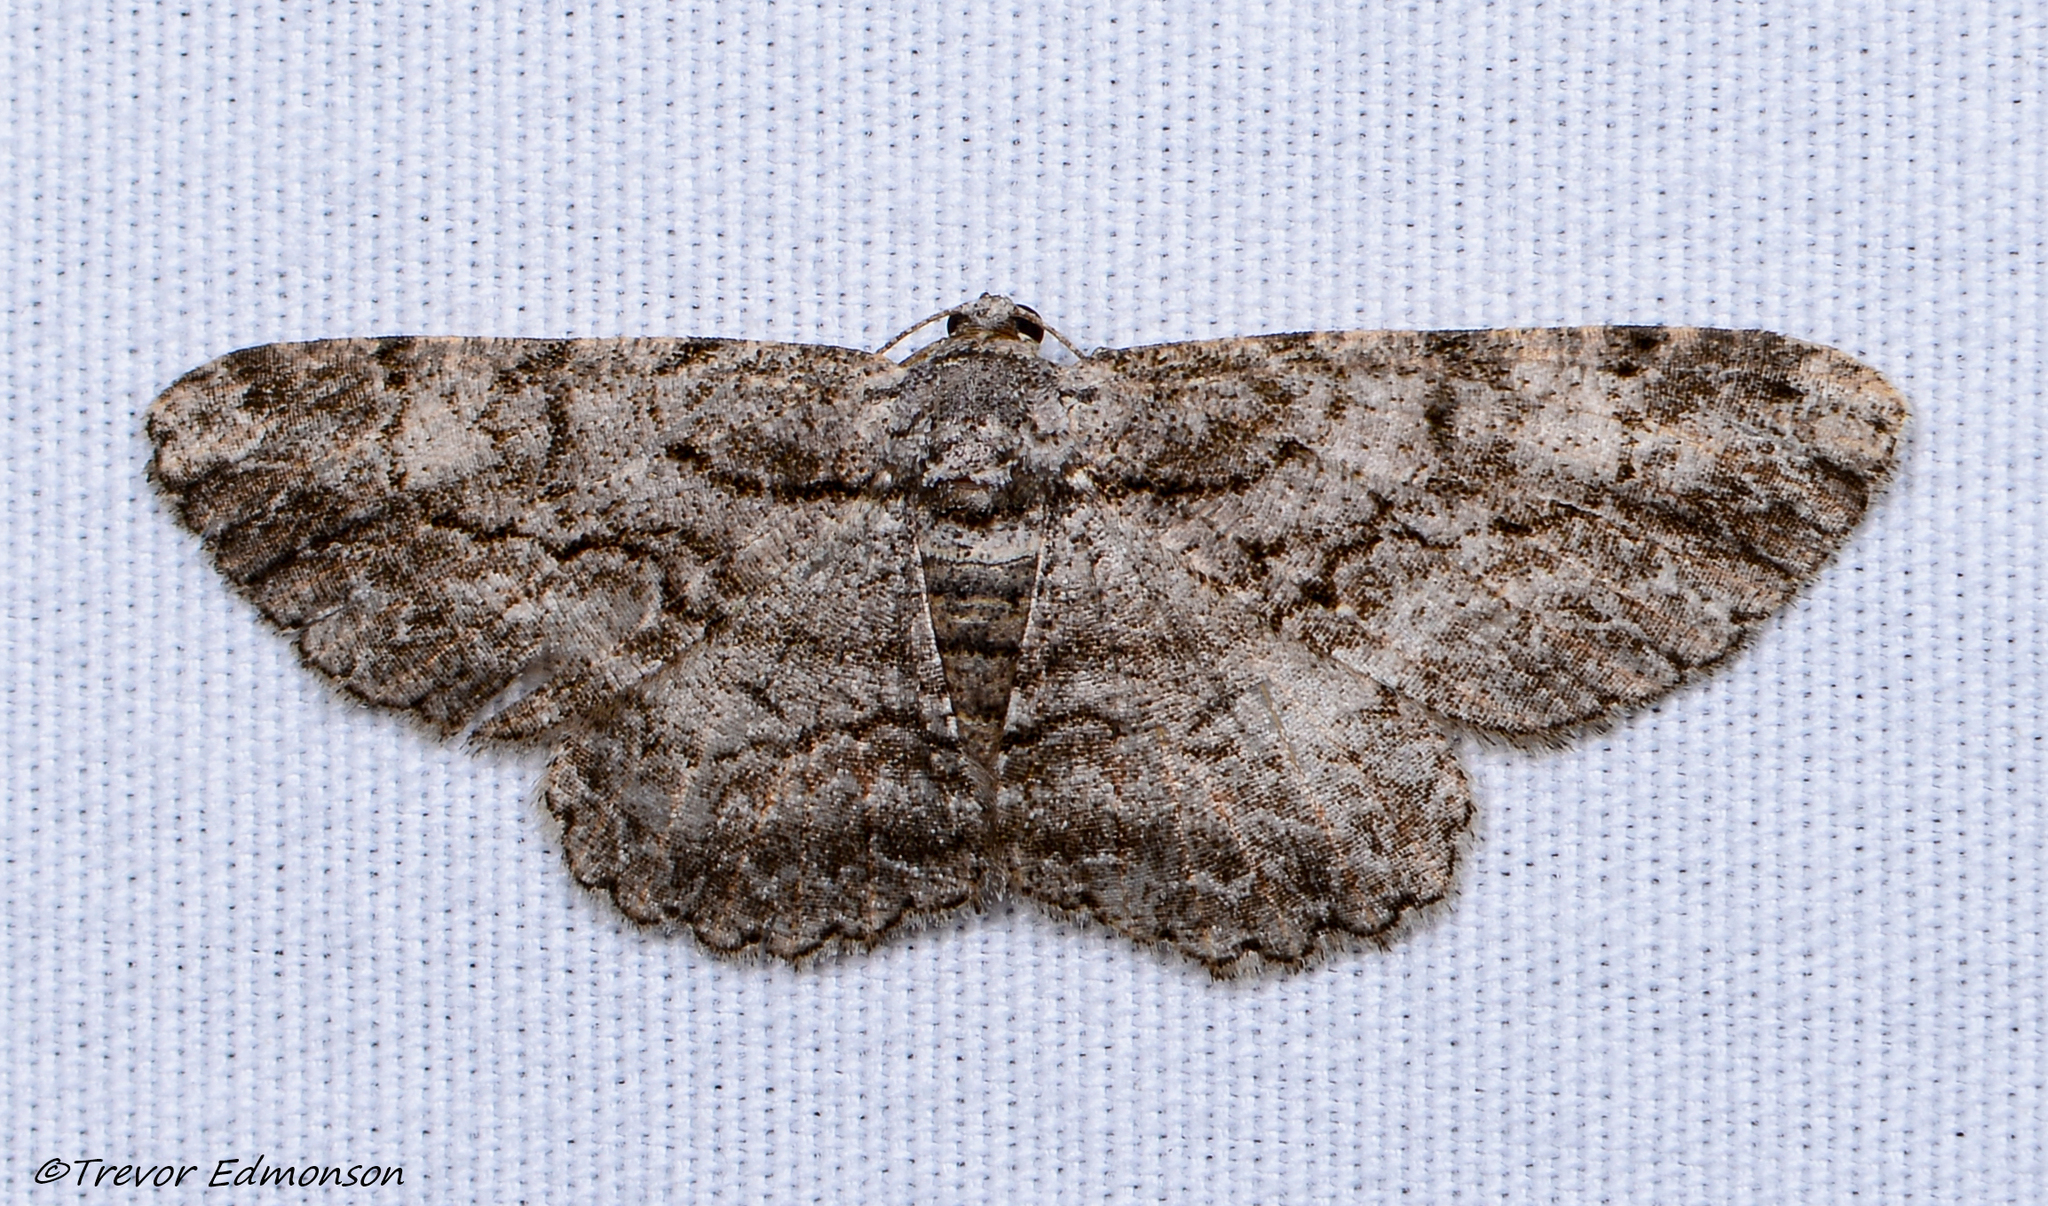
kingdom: Animalia
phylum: Arthropoda
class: Insecta
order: Lepidoptera
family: Geometridae
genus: Anavitrinella
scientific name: Anavitrinella pampinaria
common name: Common gray
